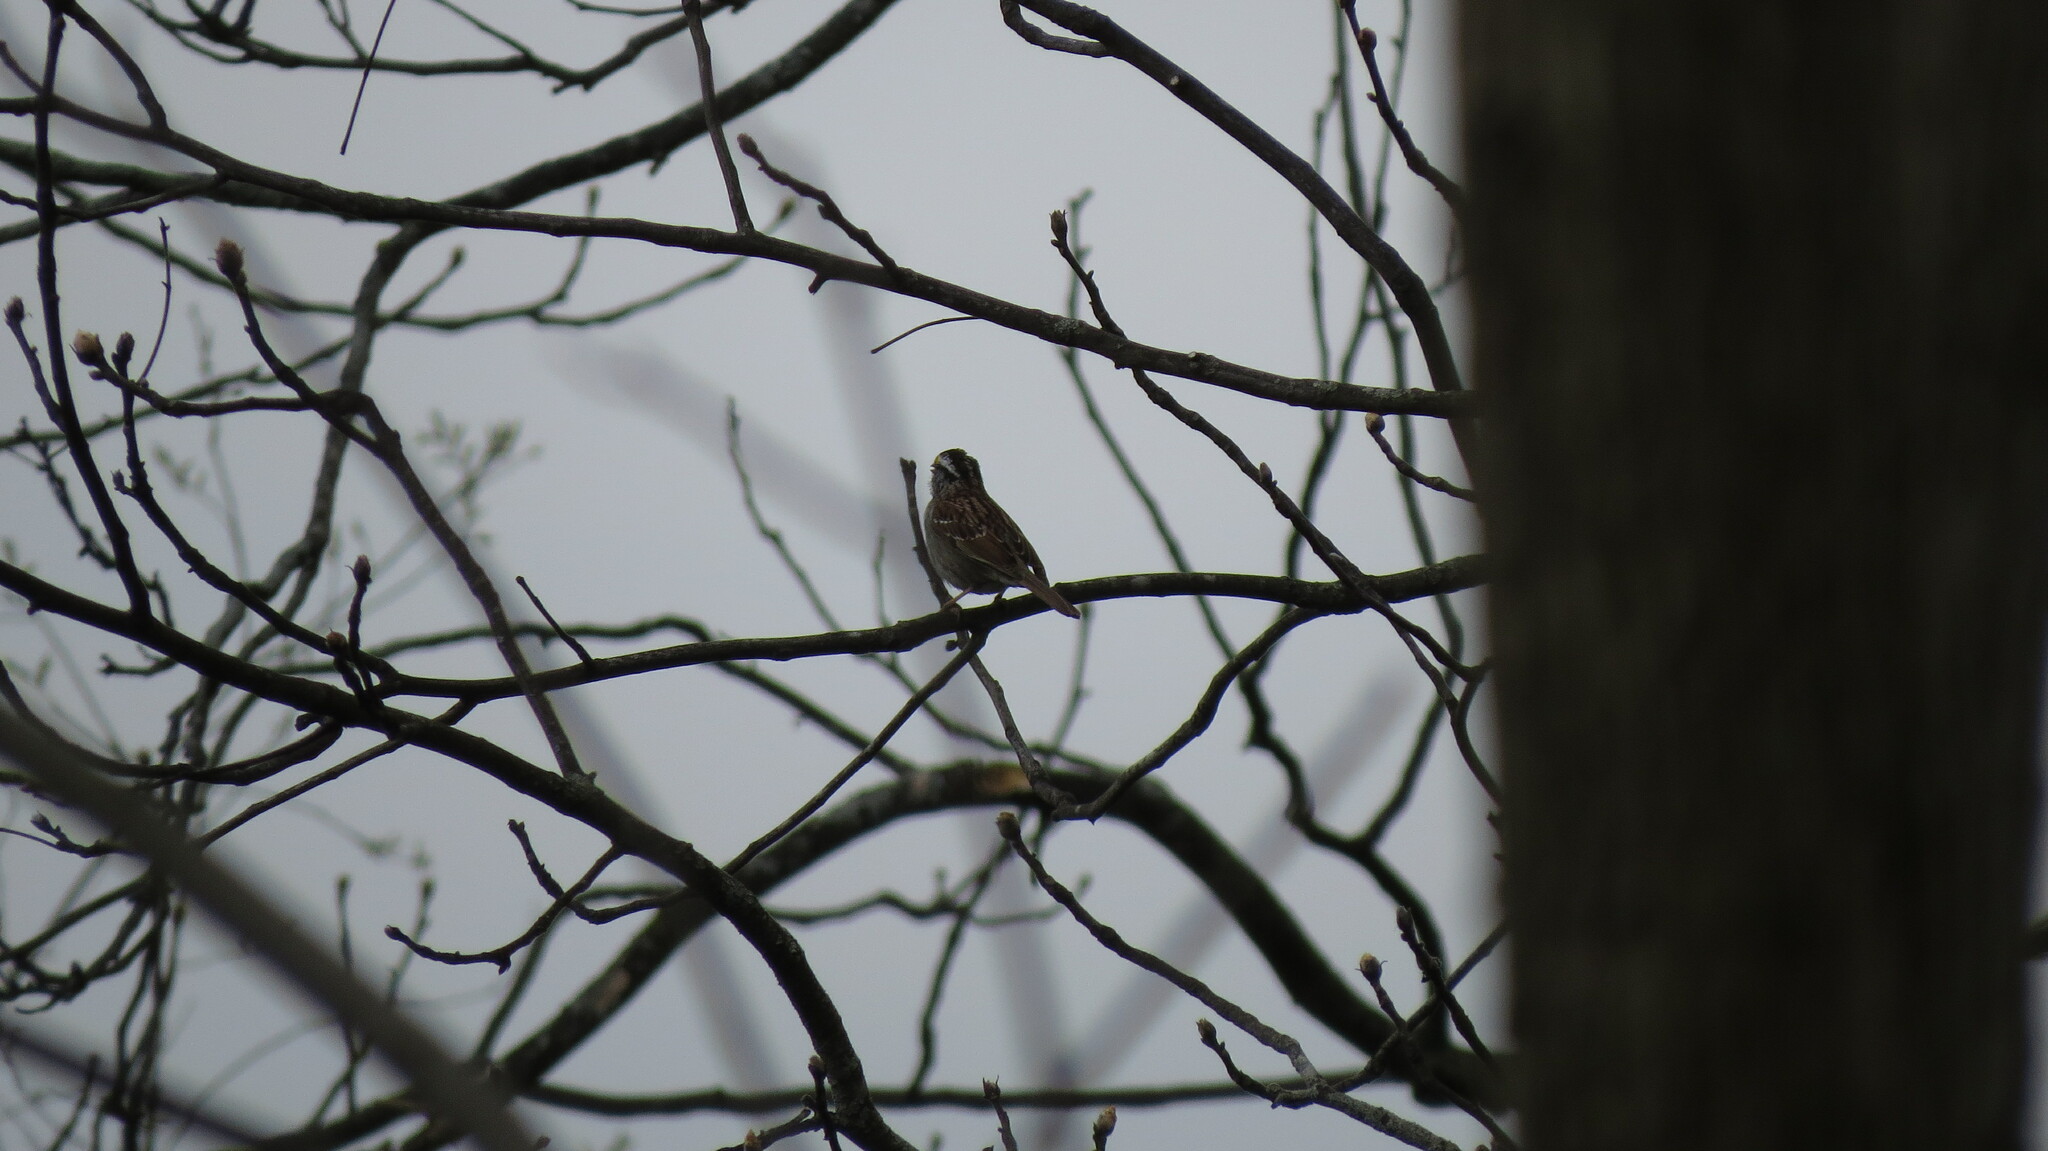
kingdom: Animalia
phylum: Chordata
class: Aves
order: Passeriformes
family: Passerellidae
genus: Zonotrichia
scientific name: Zonotrichia albicollis
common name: White-throated sparrow
